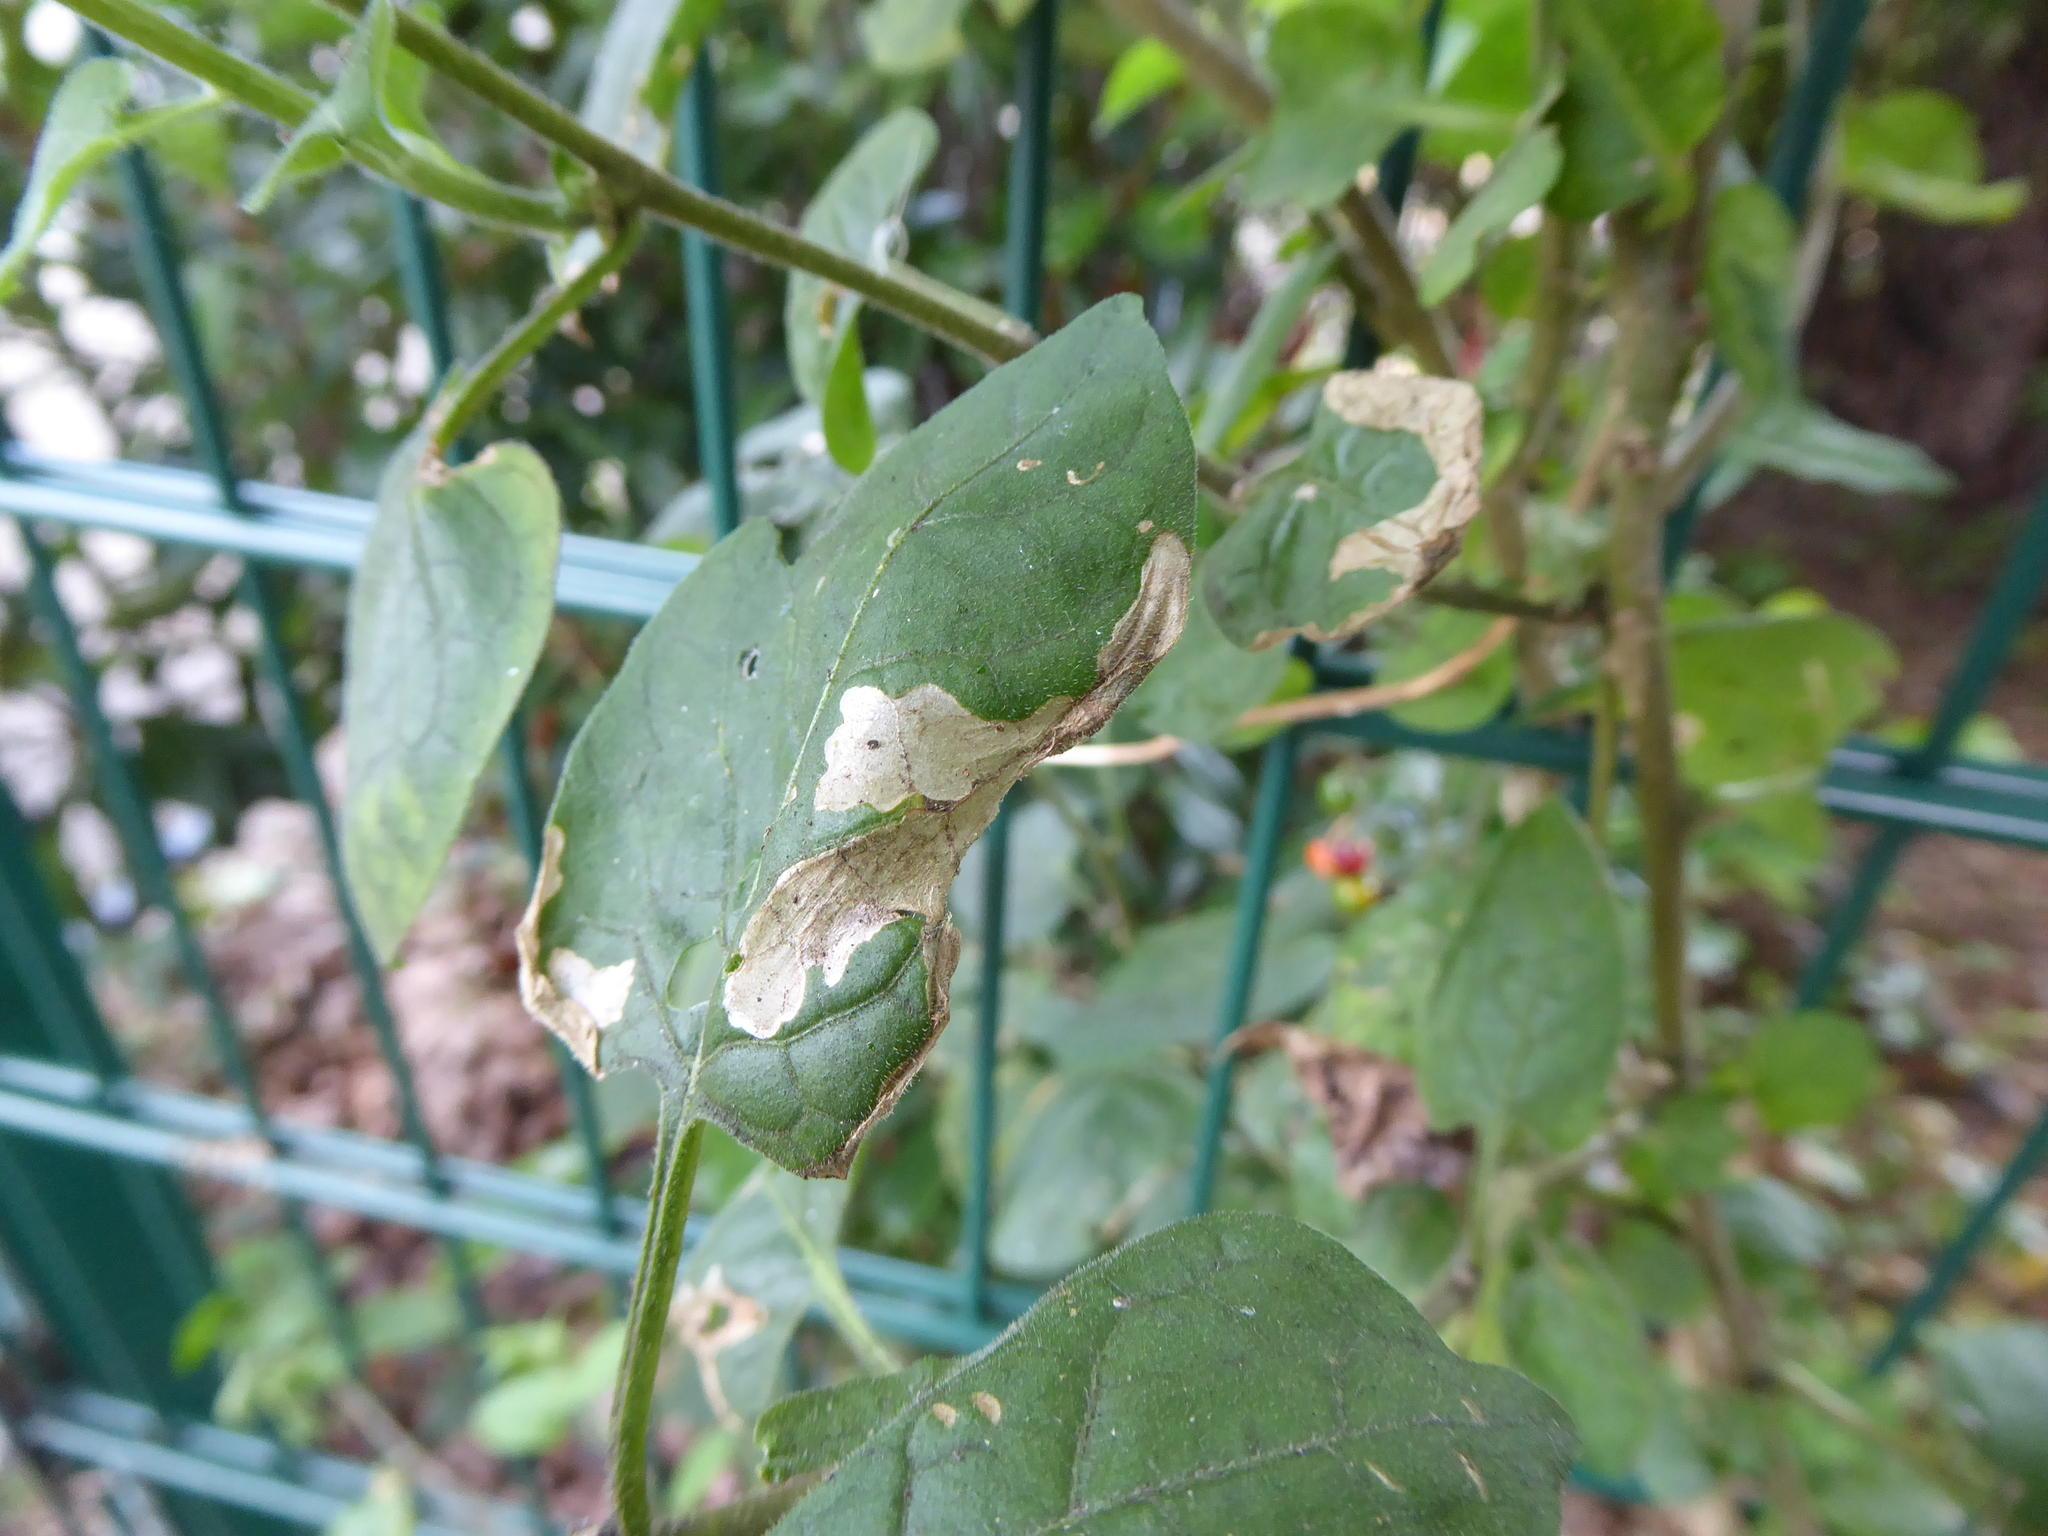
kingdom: Animalia
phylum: Arthropoda
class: Insecta
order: Lepidoptera
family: Glyphipterigidae
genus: Acrolepia
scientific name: Acrolepia pygmaeana
